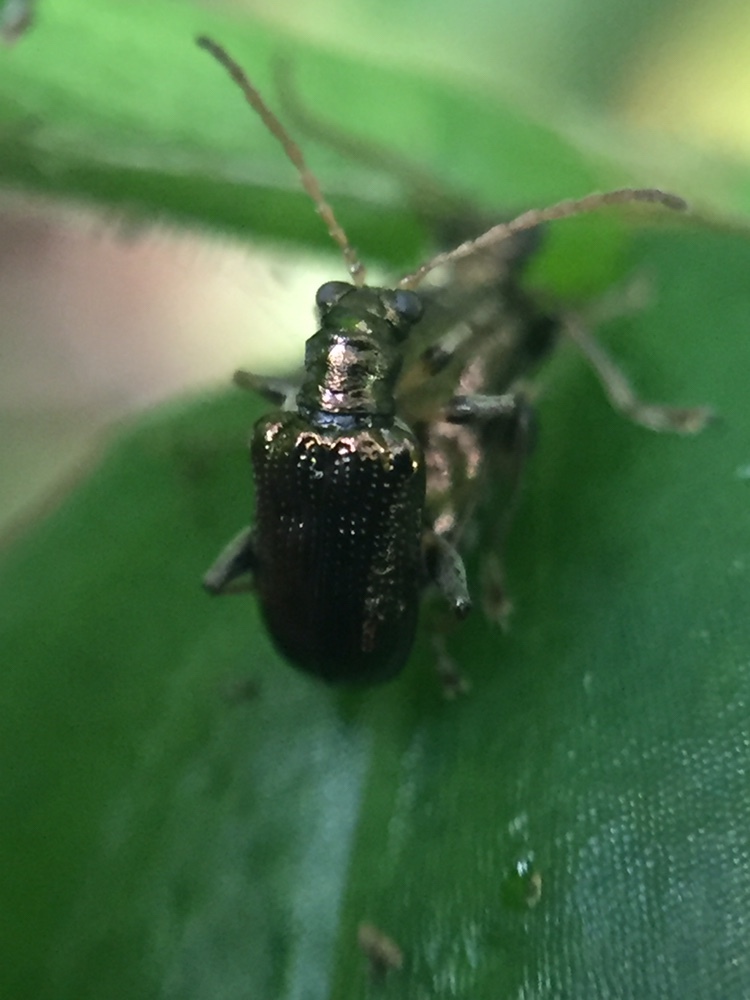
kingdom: Animalia
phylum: Arthropoda
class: Insecta
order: Coleoptera
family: Chrysomelidae
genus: Neolema
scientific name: Neolema ogloblini
